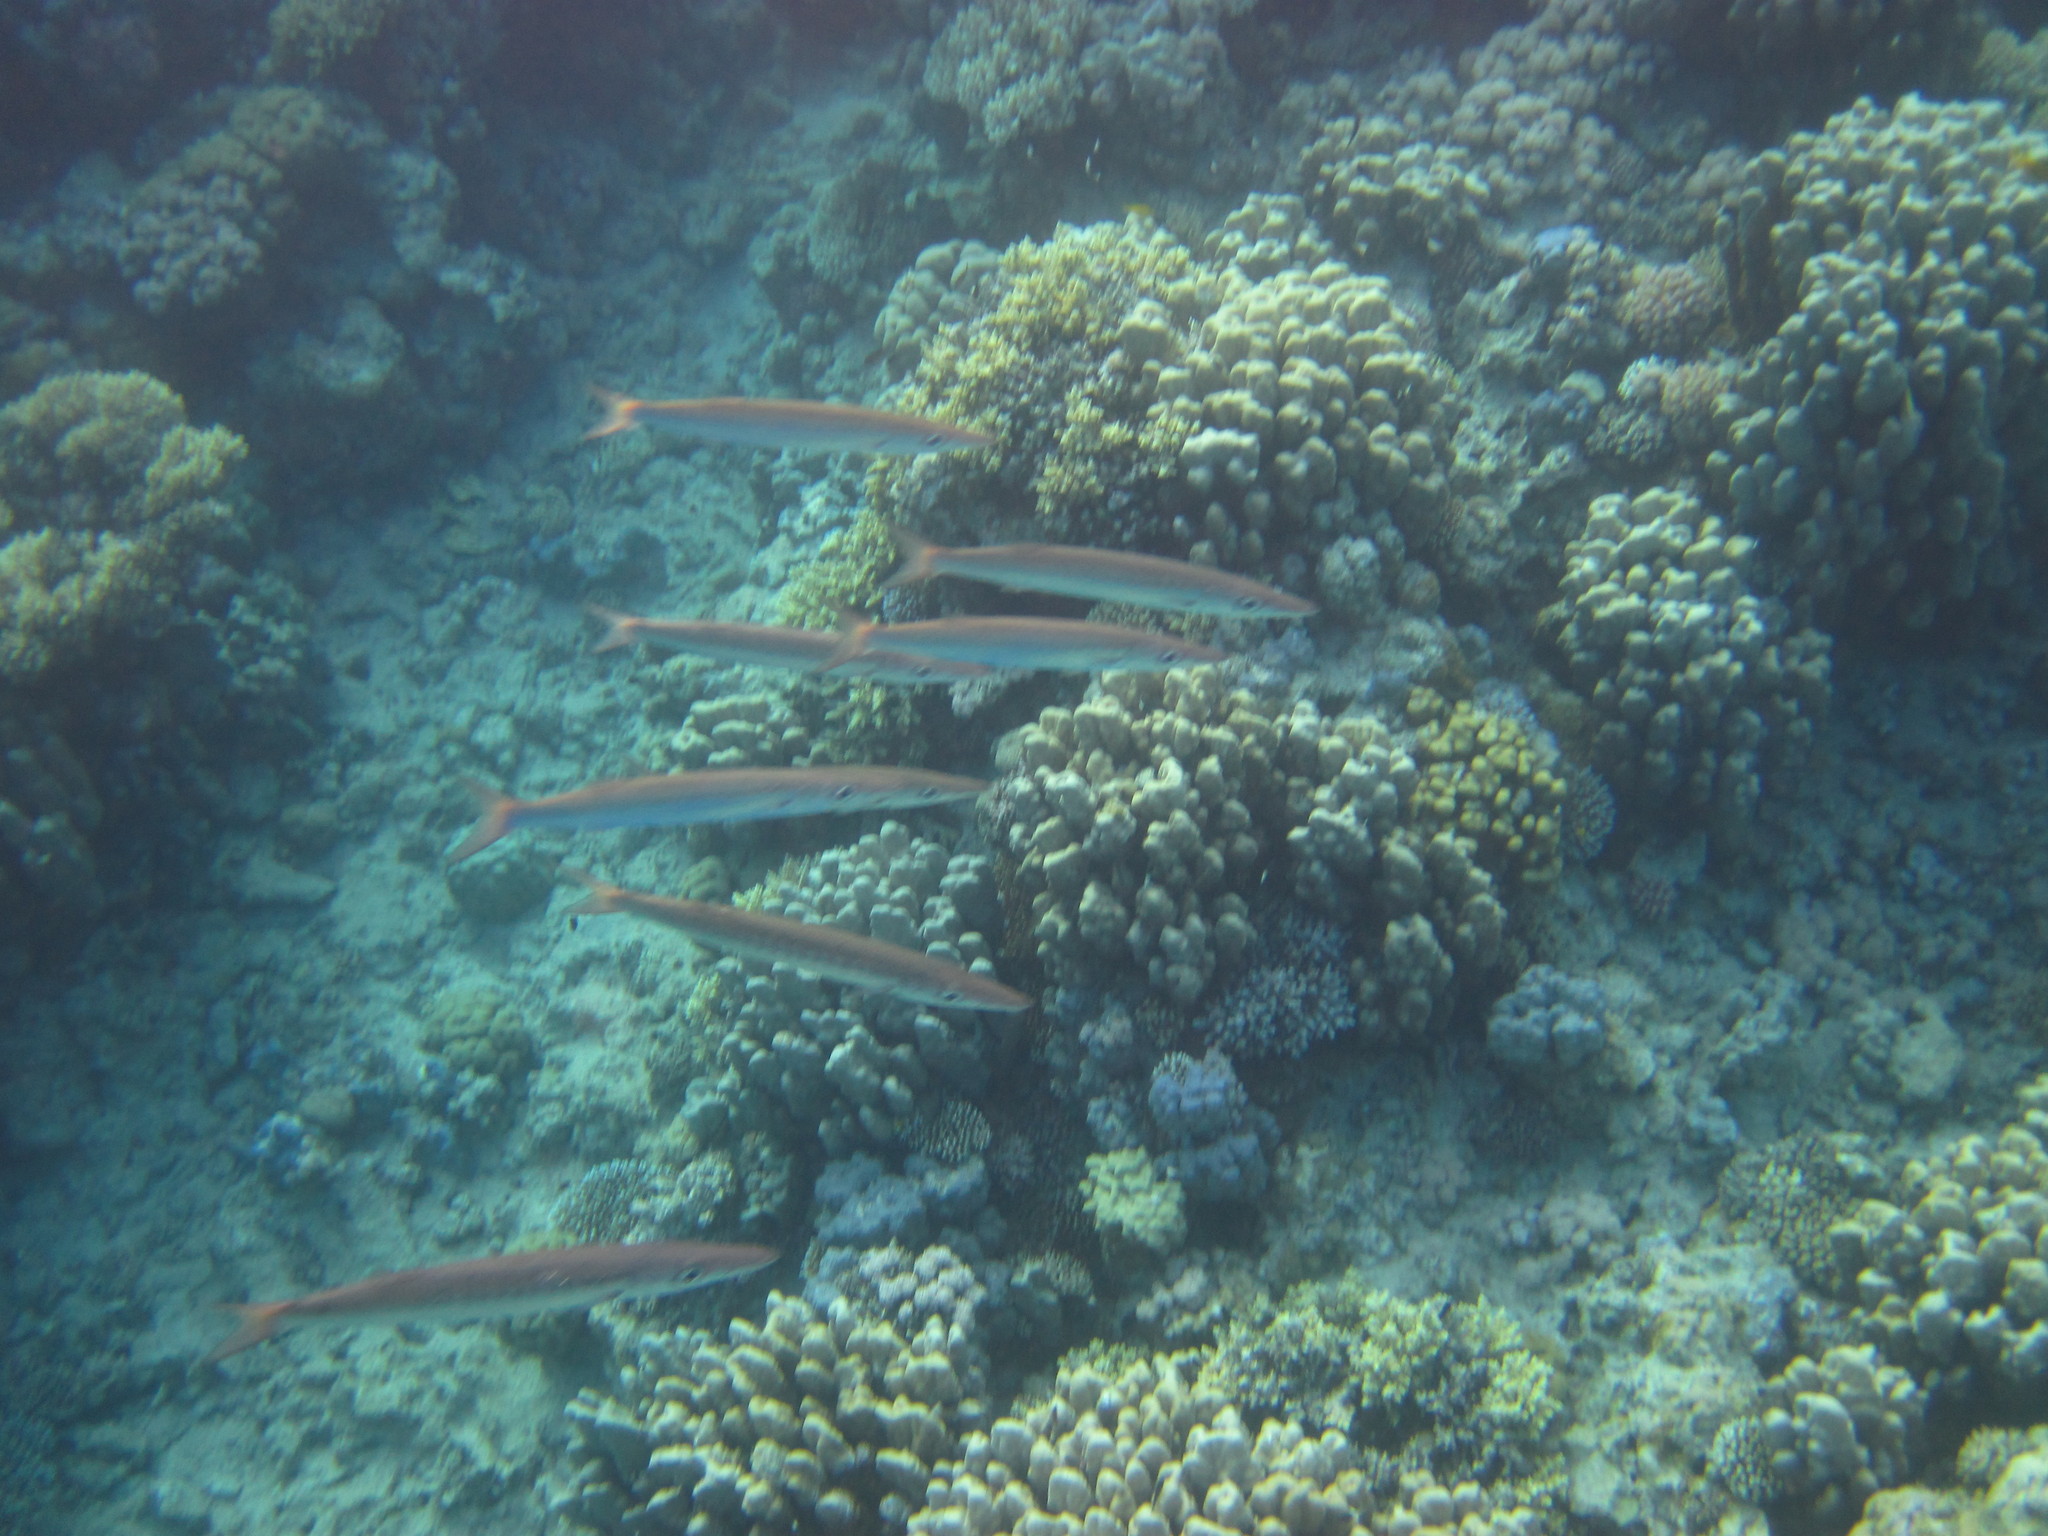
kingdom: Animalia
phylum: Chordata
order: Perciformes
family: Sphyraenidae
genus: Sphyraena
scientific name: Sphyraena flavicauda
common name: Yellowtail barracuda
